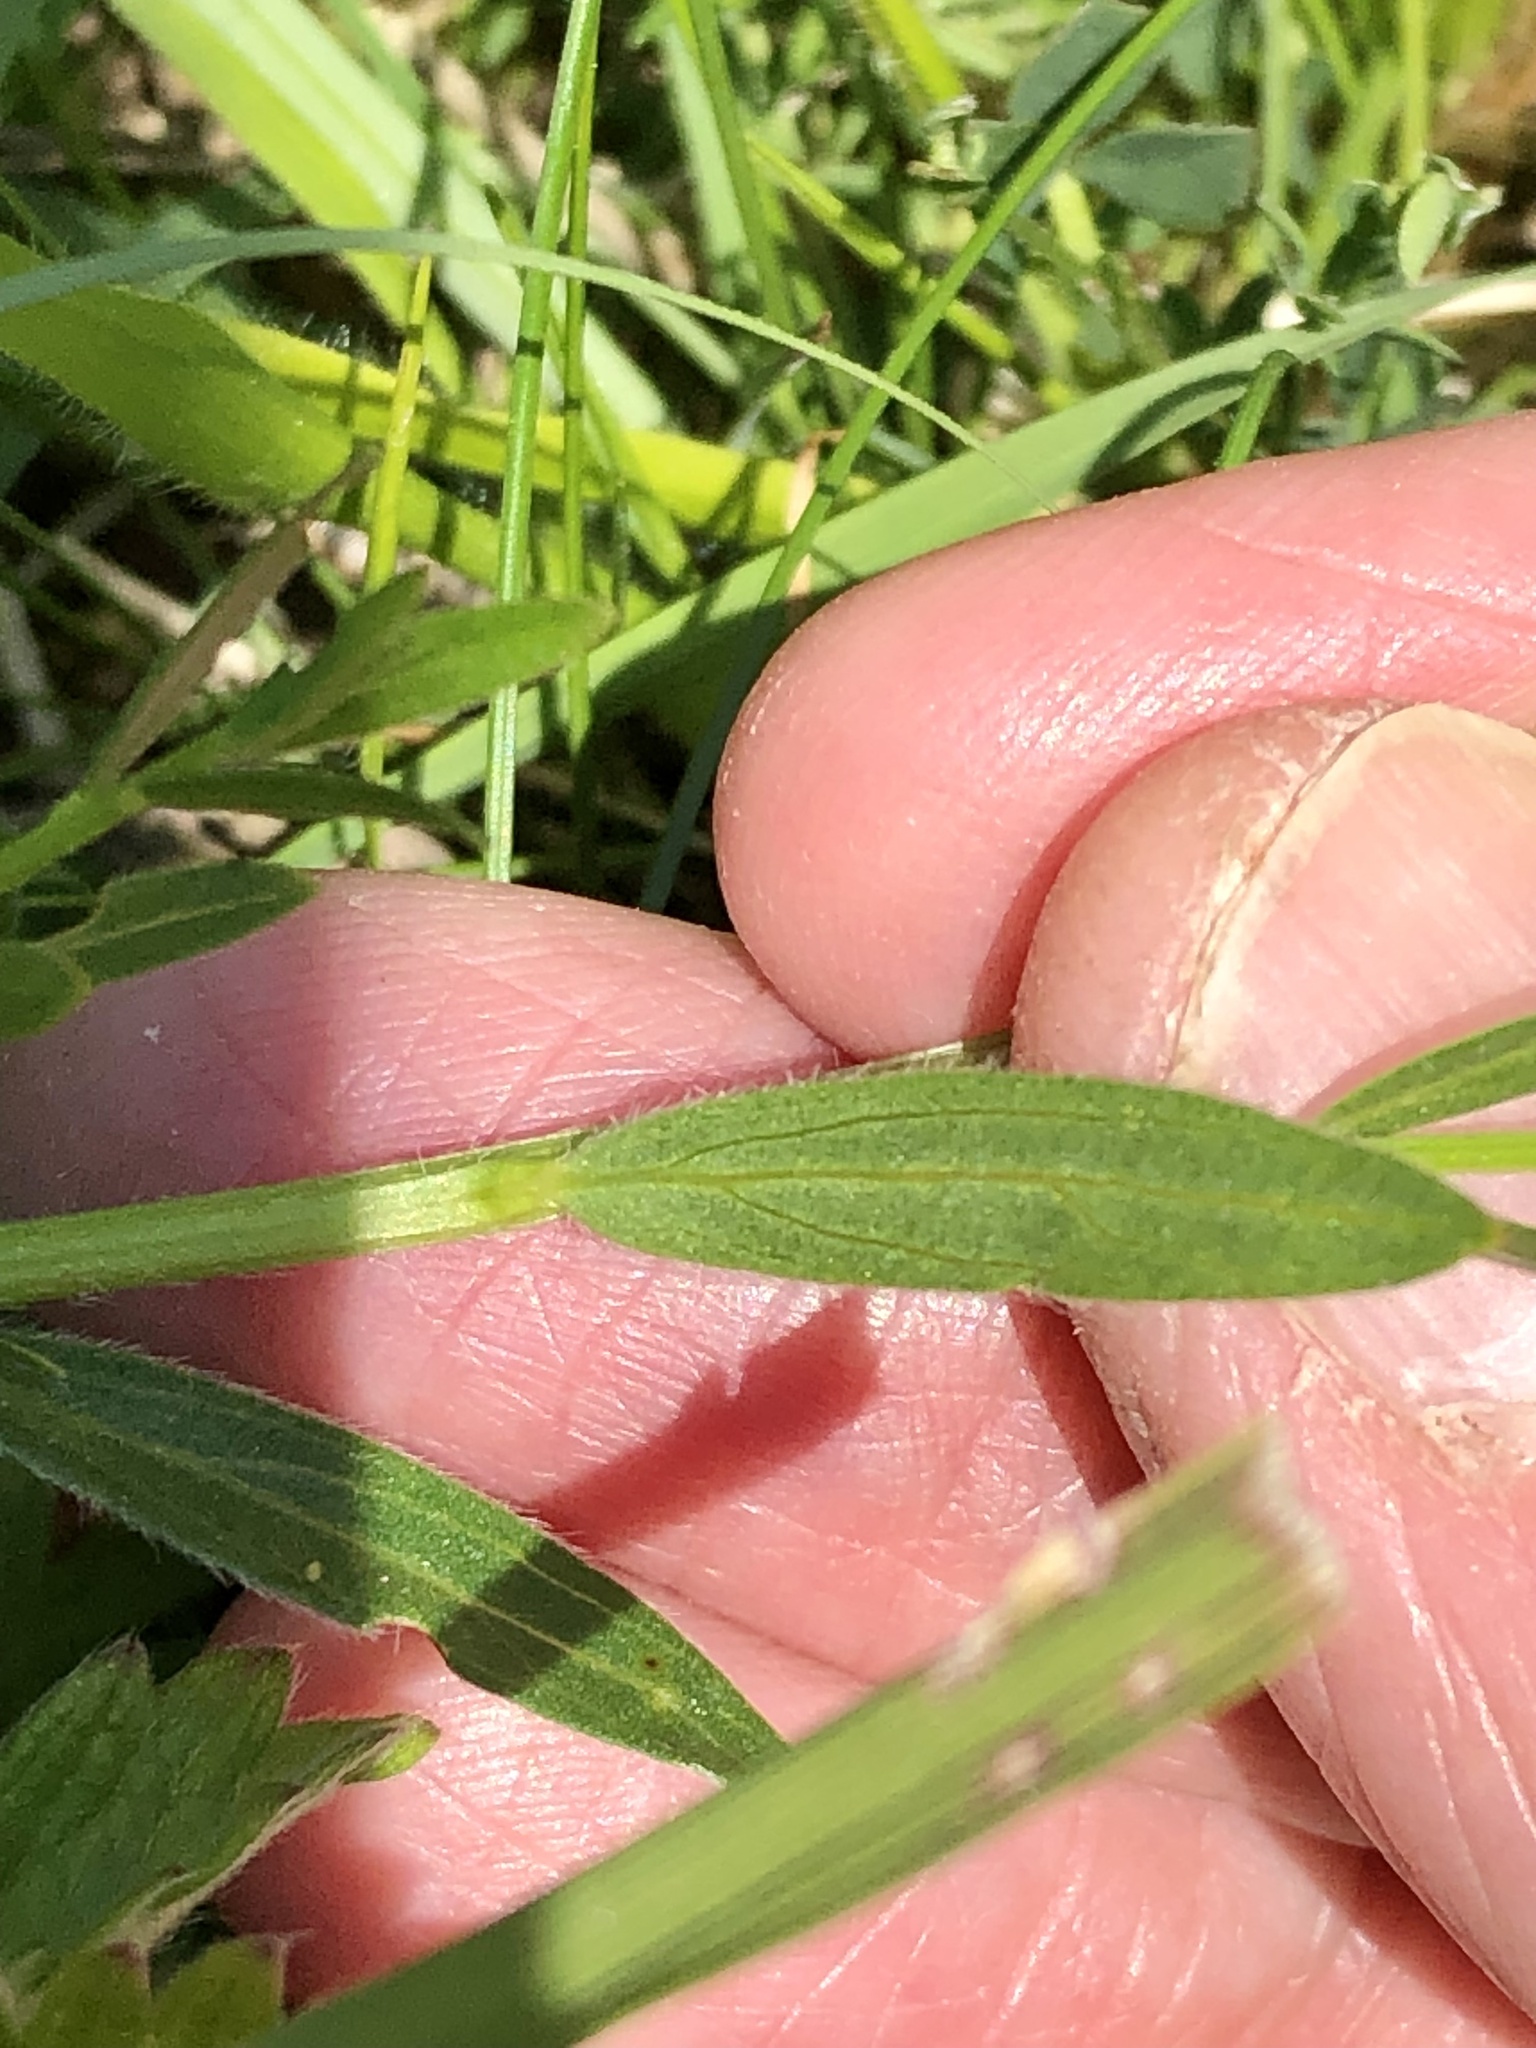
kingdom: Plantae
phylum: Tracheophyta
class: Magnoliopsida
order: Fabales
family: Fabaceae
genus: Genista
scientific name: Genista tinctoria
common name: Dyer's greenweed
